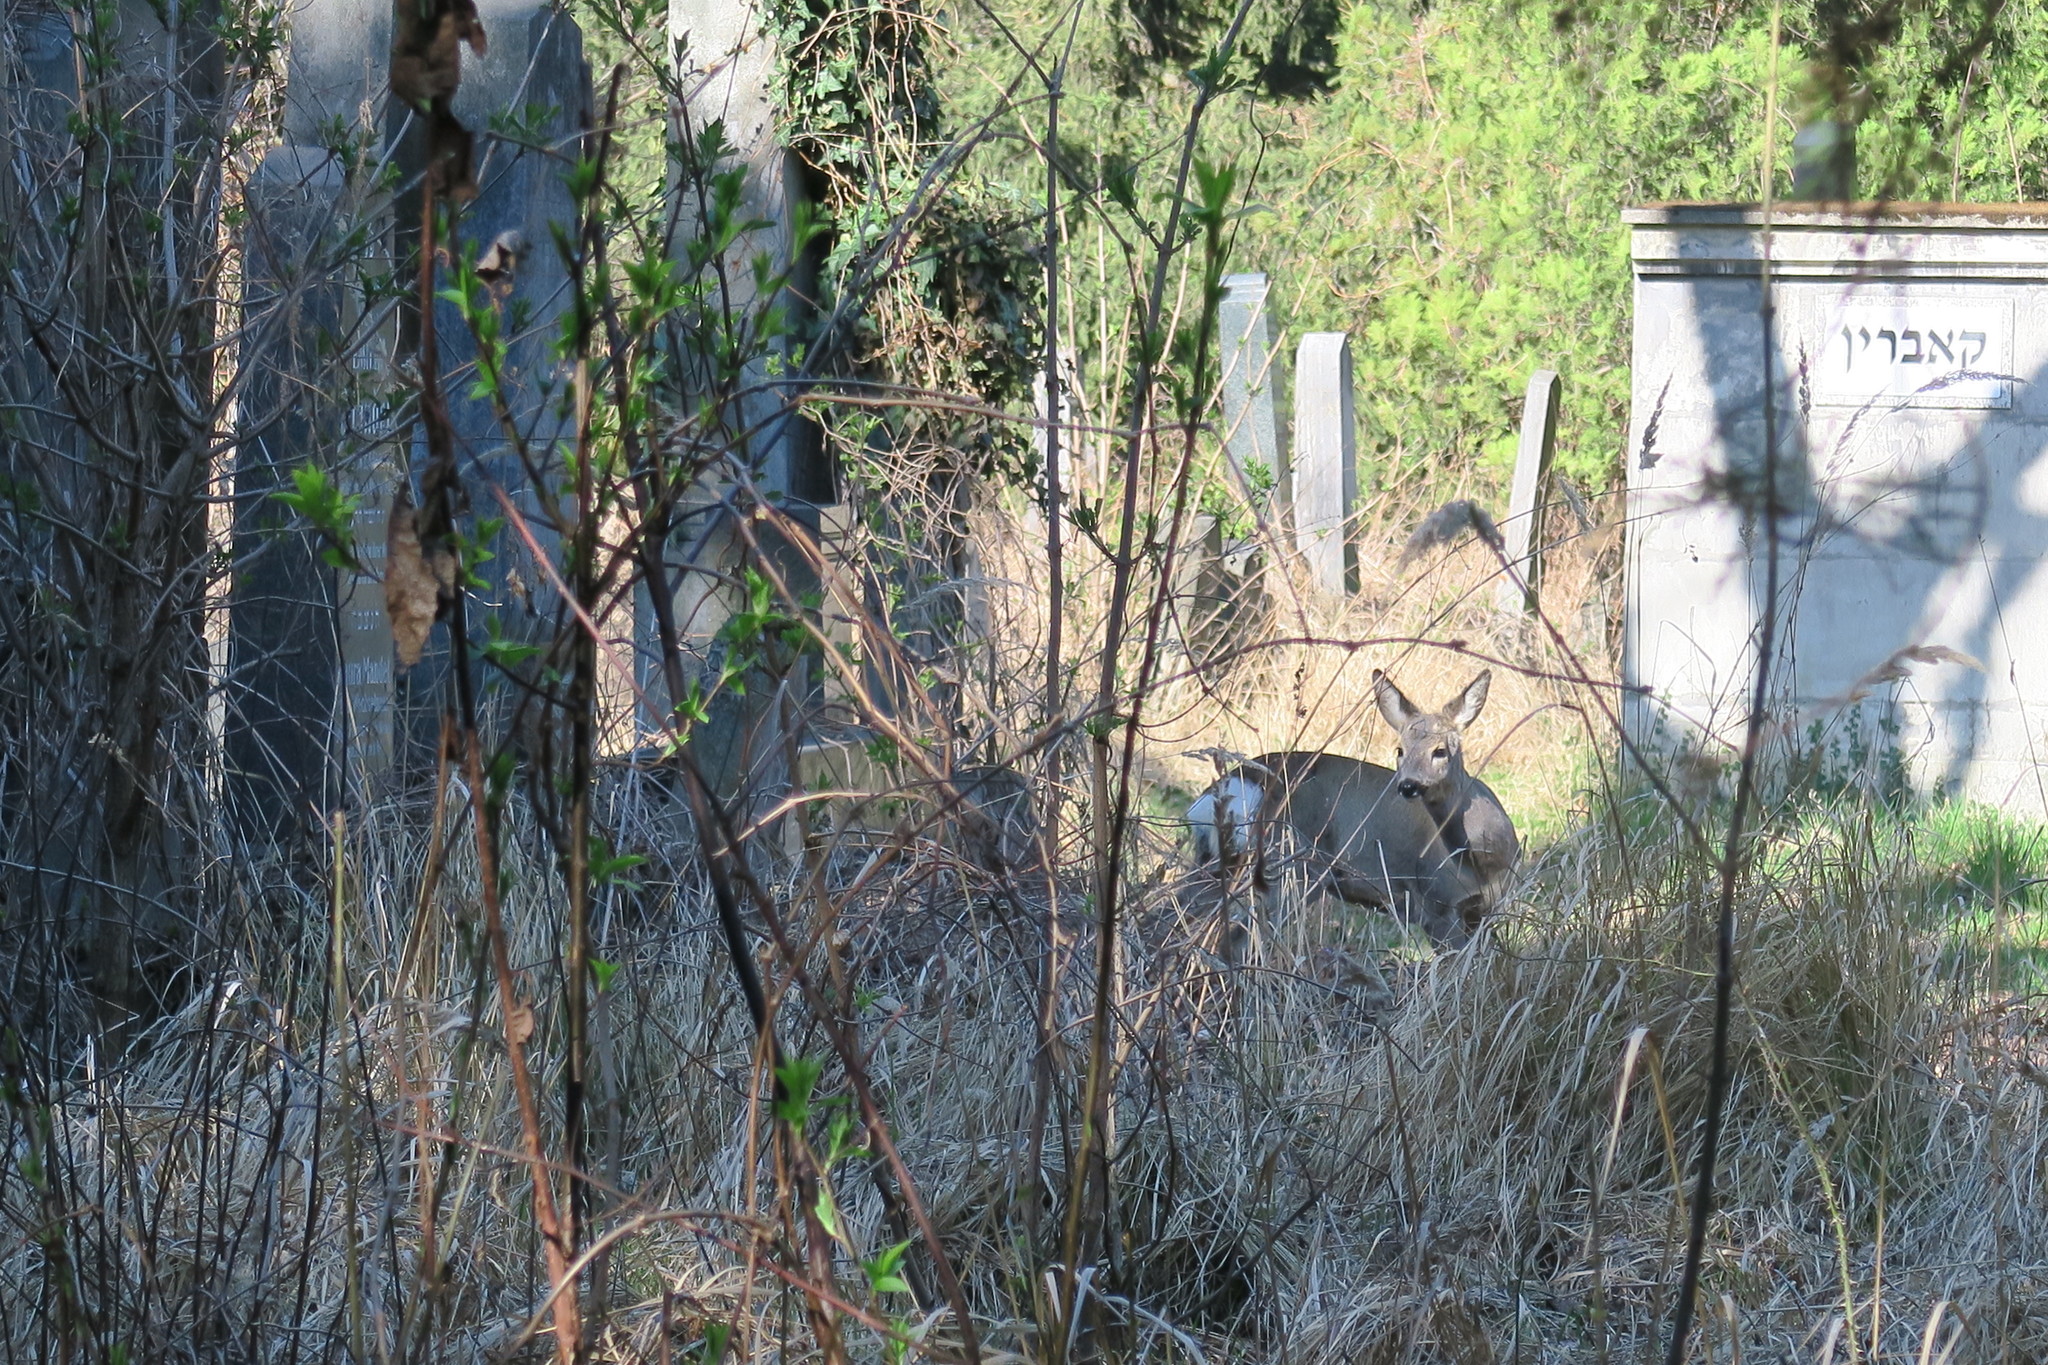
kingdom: Animalia
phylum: Chordata
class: Mammalia
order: Artiodactyla
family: Cervidae
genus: Capreolus
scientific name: Capreolus capreolus
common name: Western roe deer
